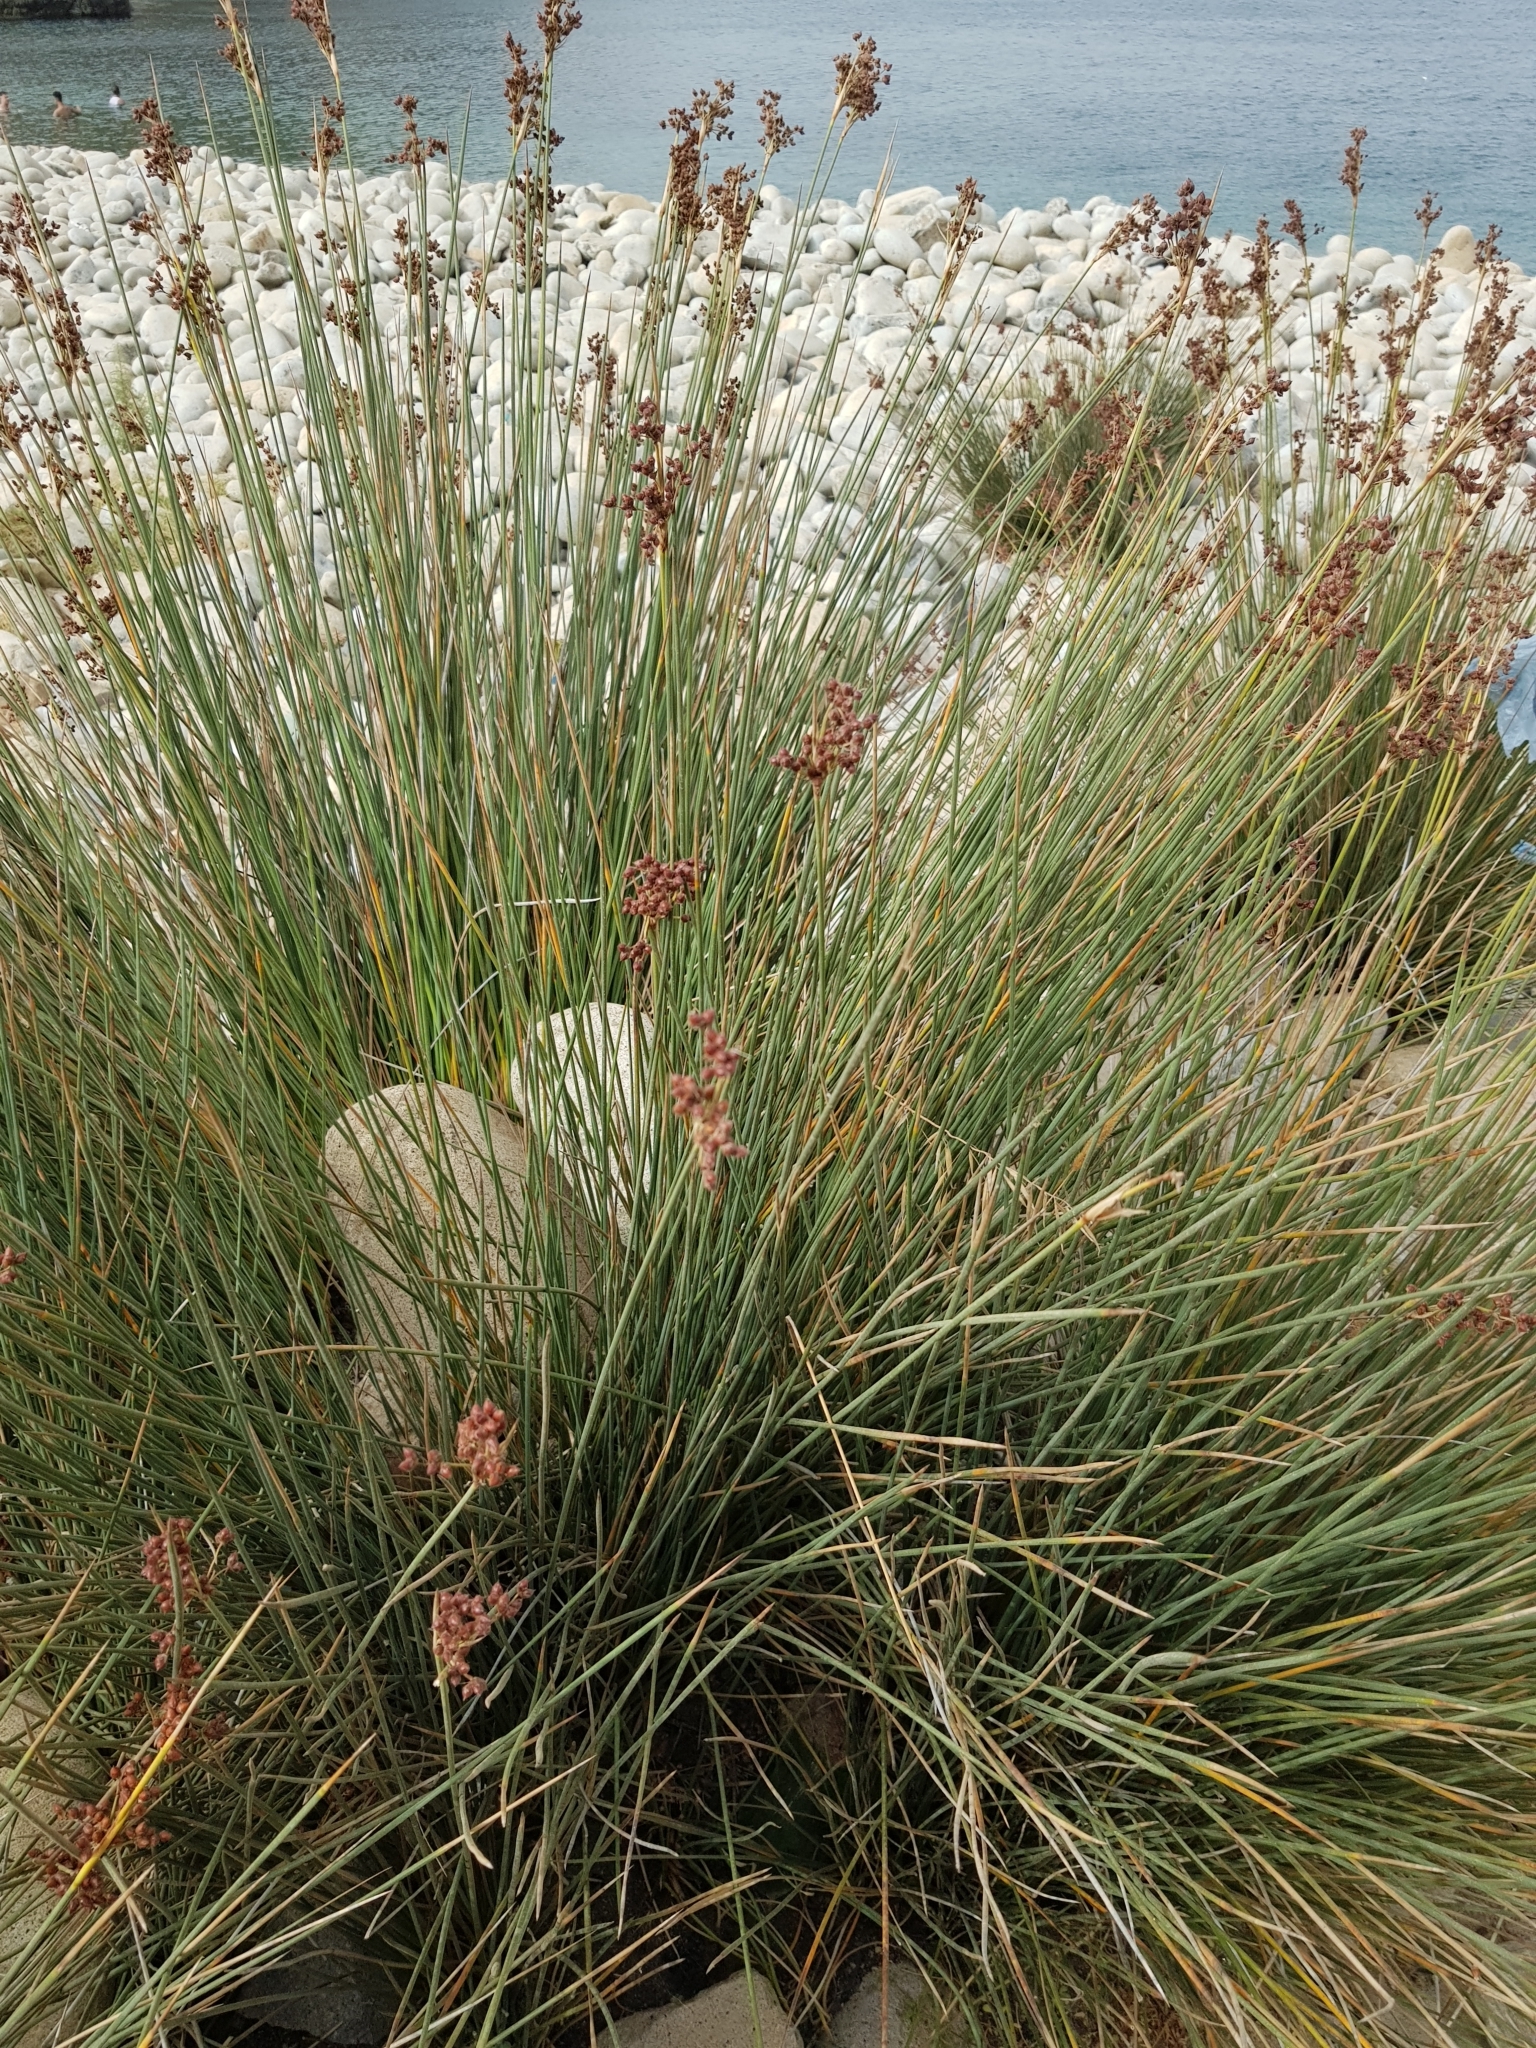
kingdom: Plantae
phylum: Tracheophyta
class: Liliopsida
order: Poales
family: Juncaceae
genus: Juncus
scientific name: Juncus acutus
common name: Sharp rush
